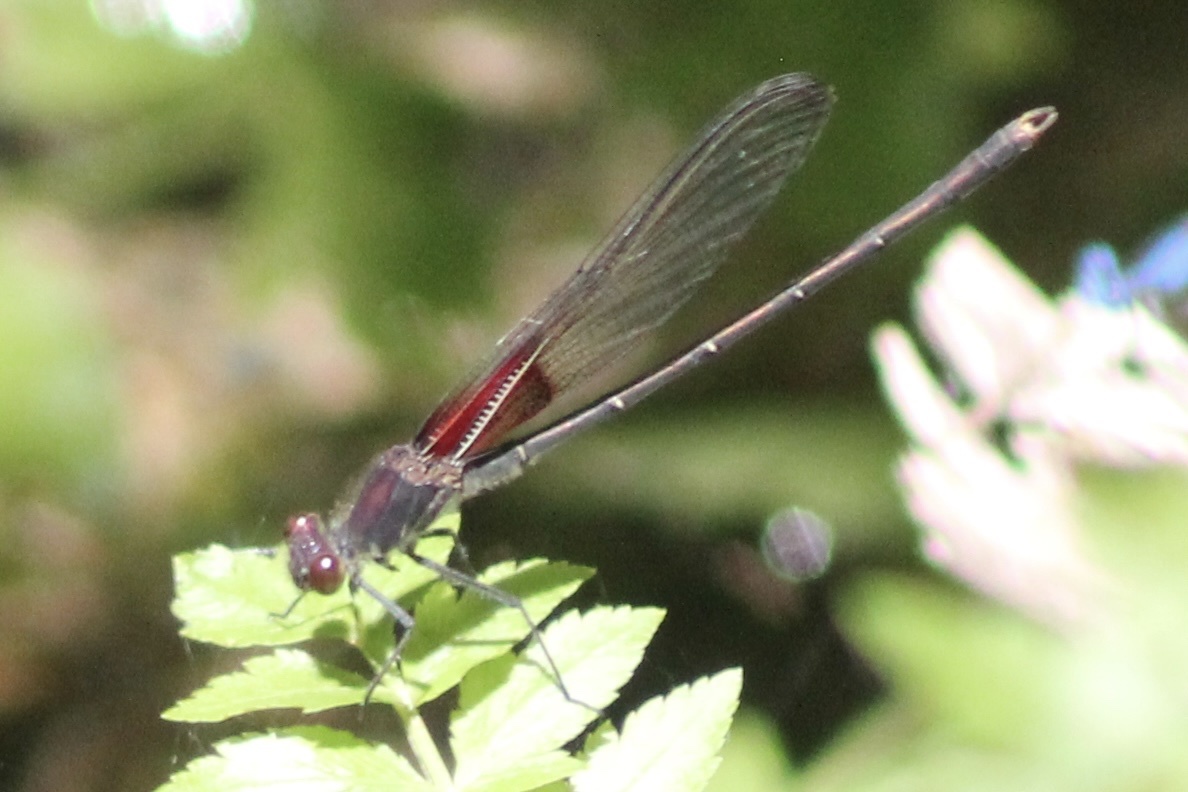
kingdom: Animalia
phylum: Arthropoda
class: Insecta
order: Odonata
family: Calopterygidae
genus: Hetaerina
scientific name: Hetaerina americana
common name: American rubyspot
